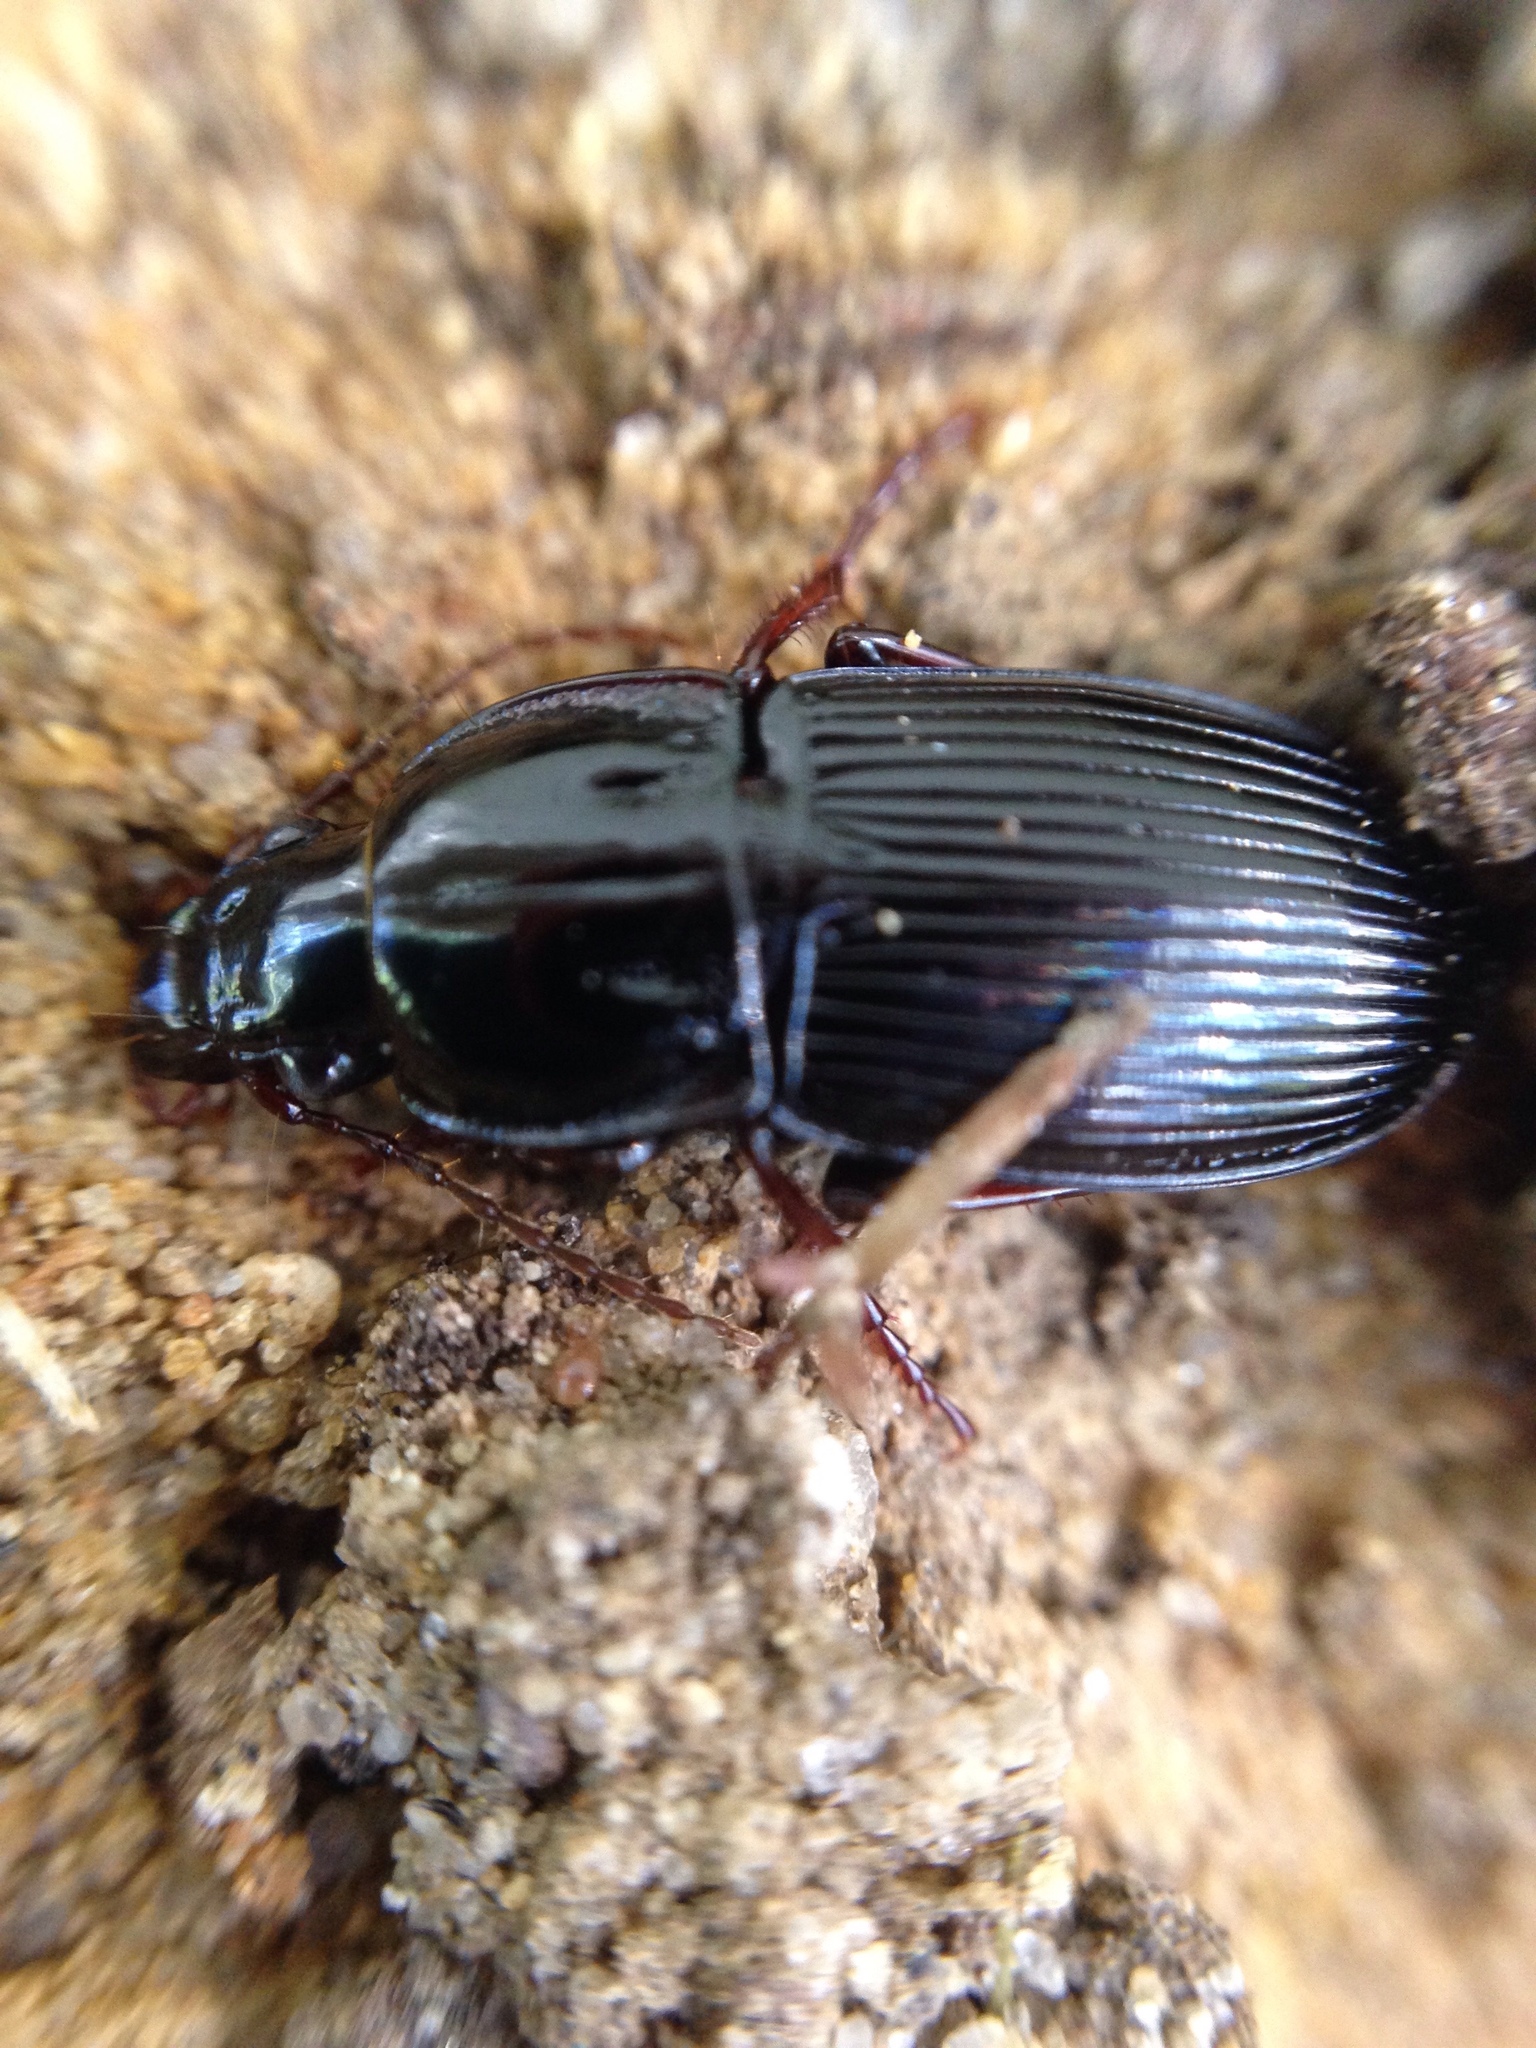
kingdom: Animalia
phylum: Arthropoda
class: Insecta
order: Coleoptera
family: Carabidae
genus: Abacidus
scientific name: Abacidus
